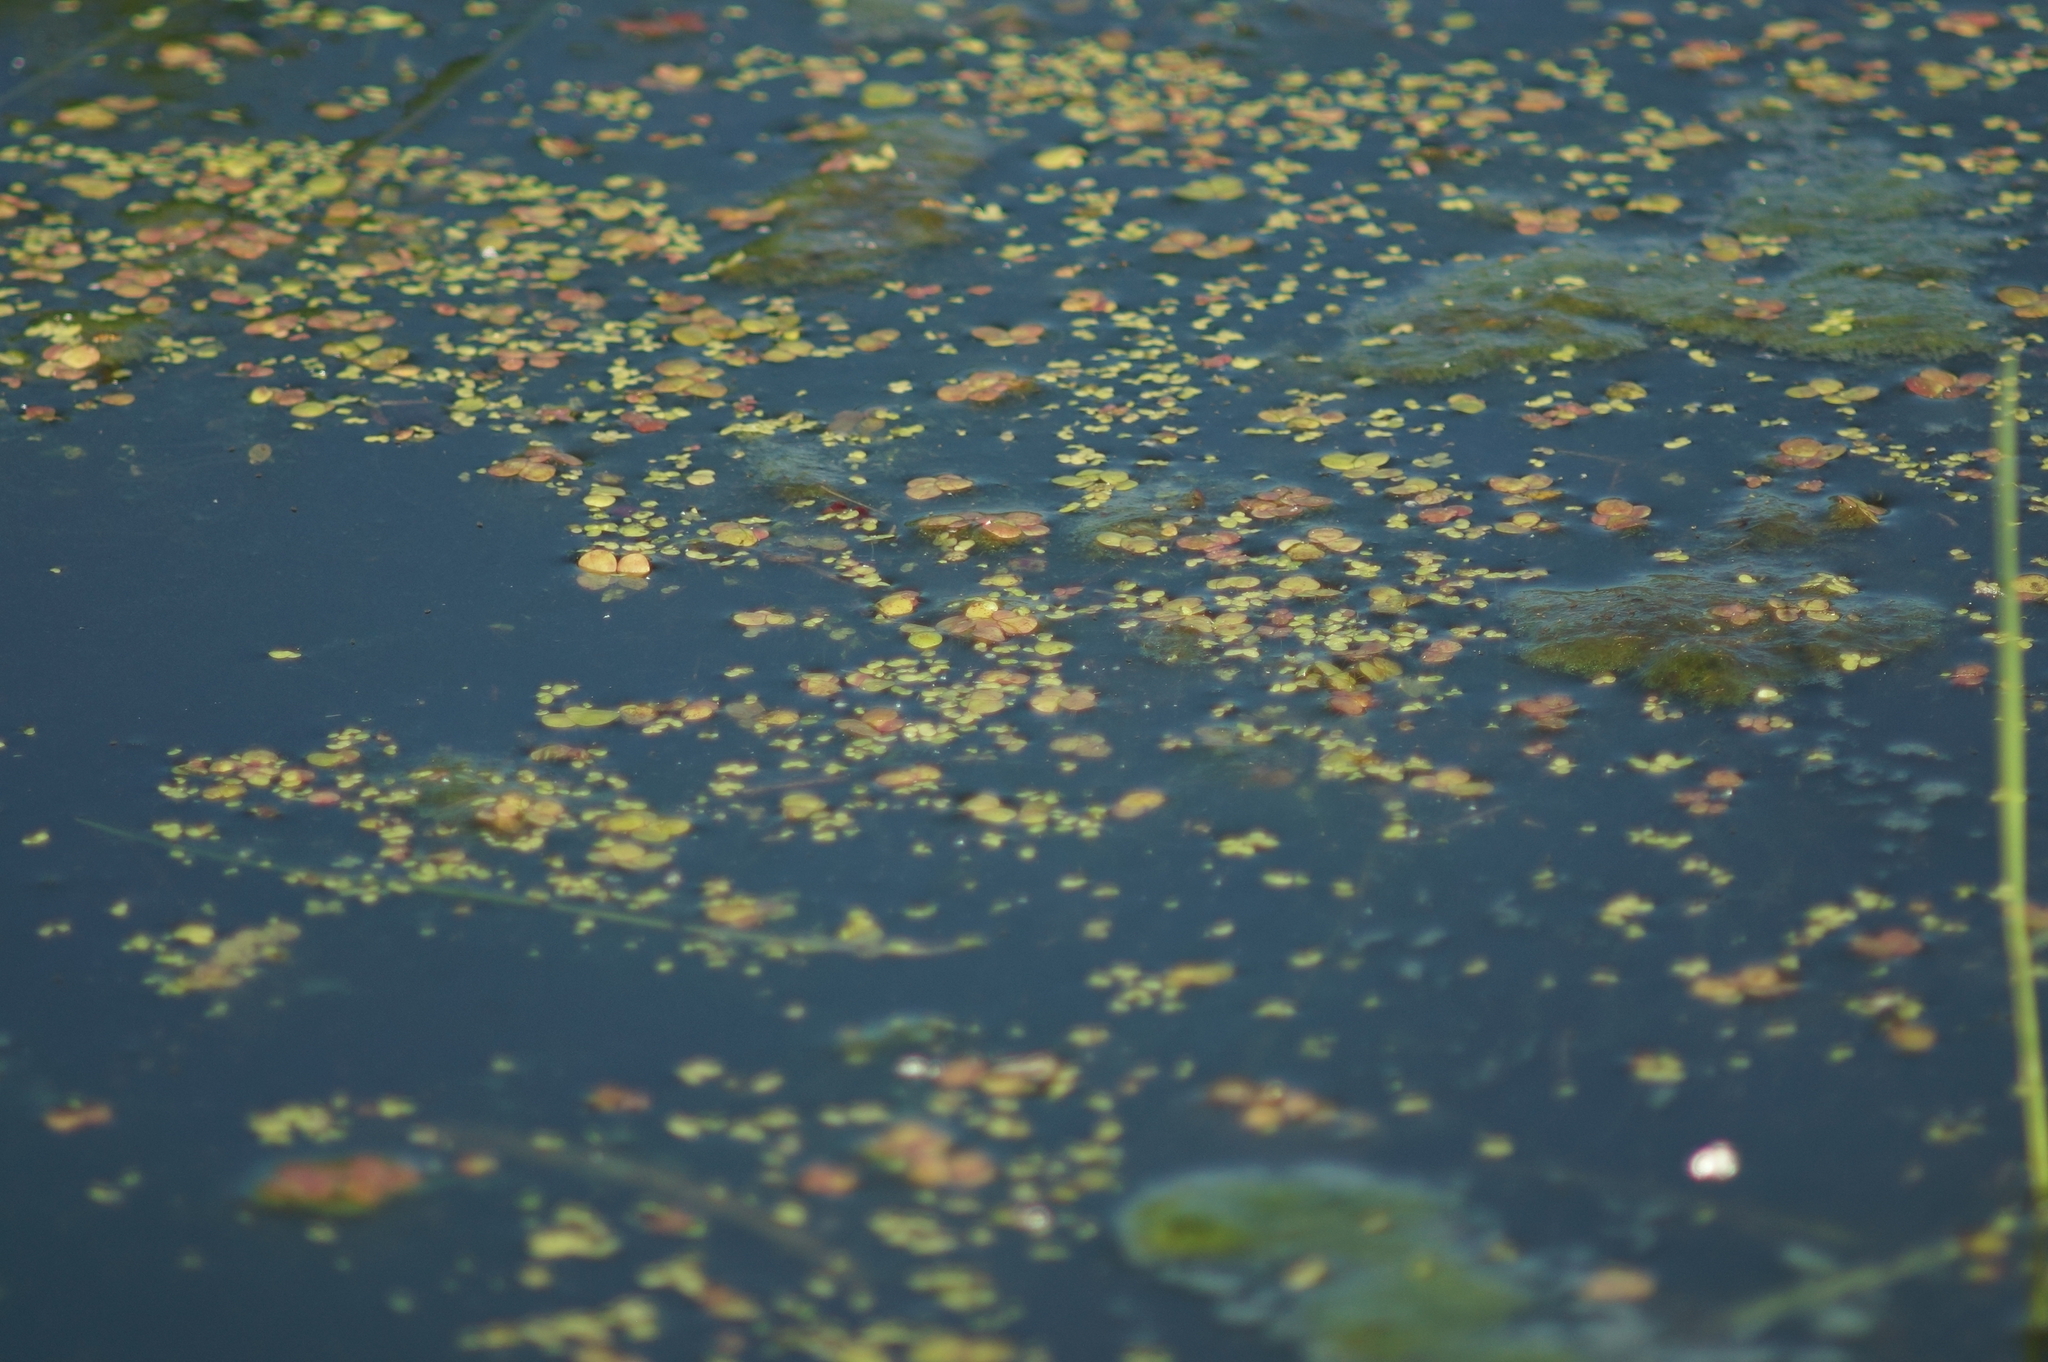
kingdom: Plantae
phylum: Tracheophyta
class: Liliopsida
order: Alismatales
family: Araceae
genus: Lemna
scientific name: Lemna minor
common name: Common duckweed
